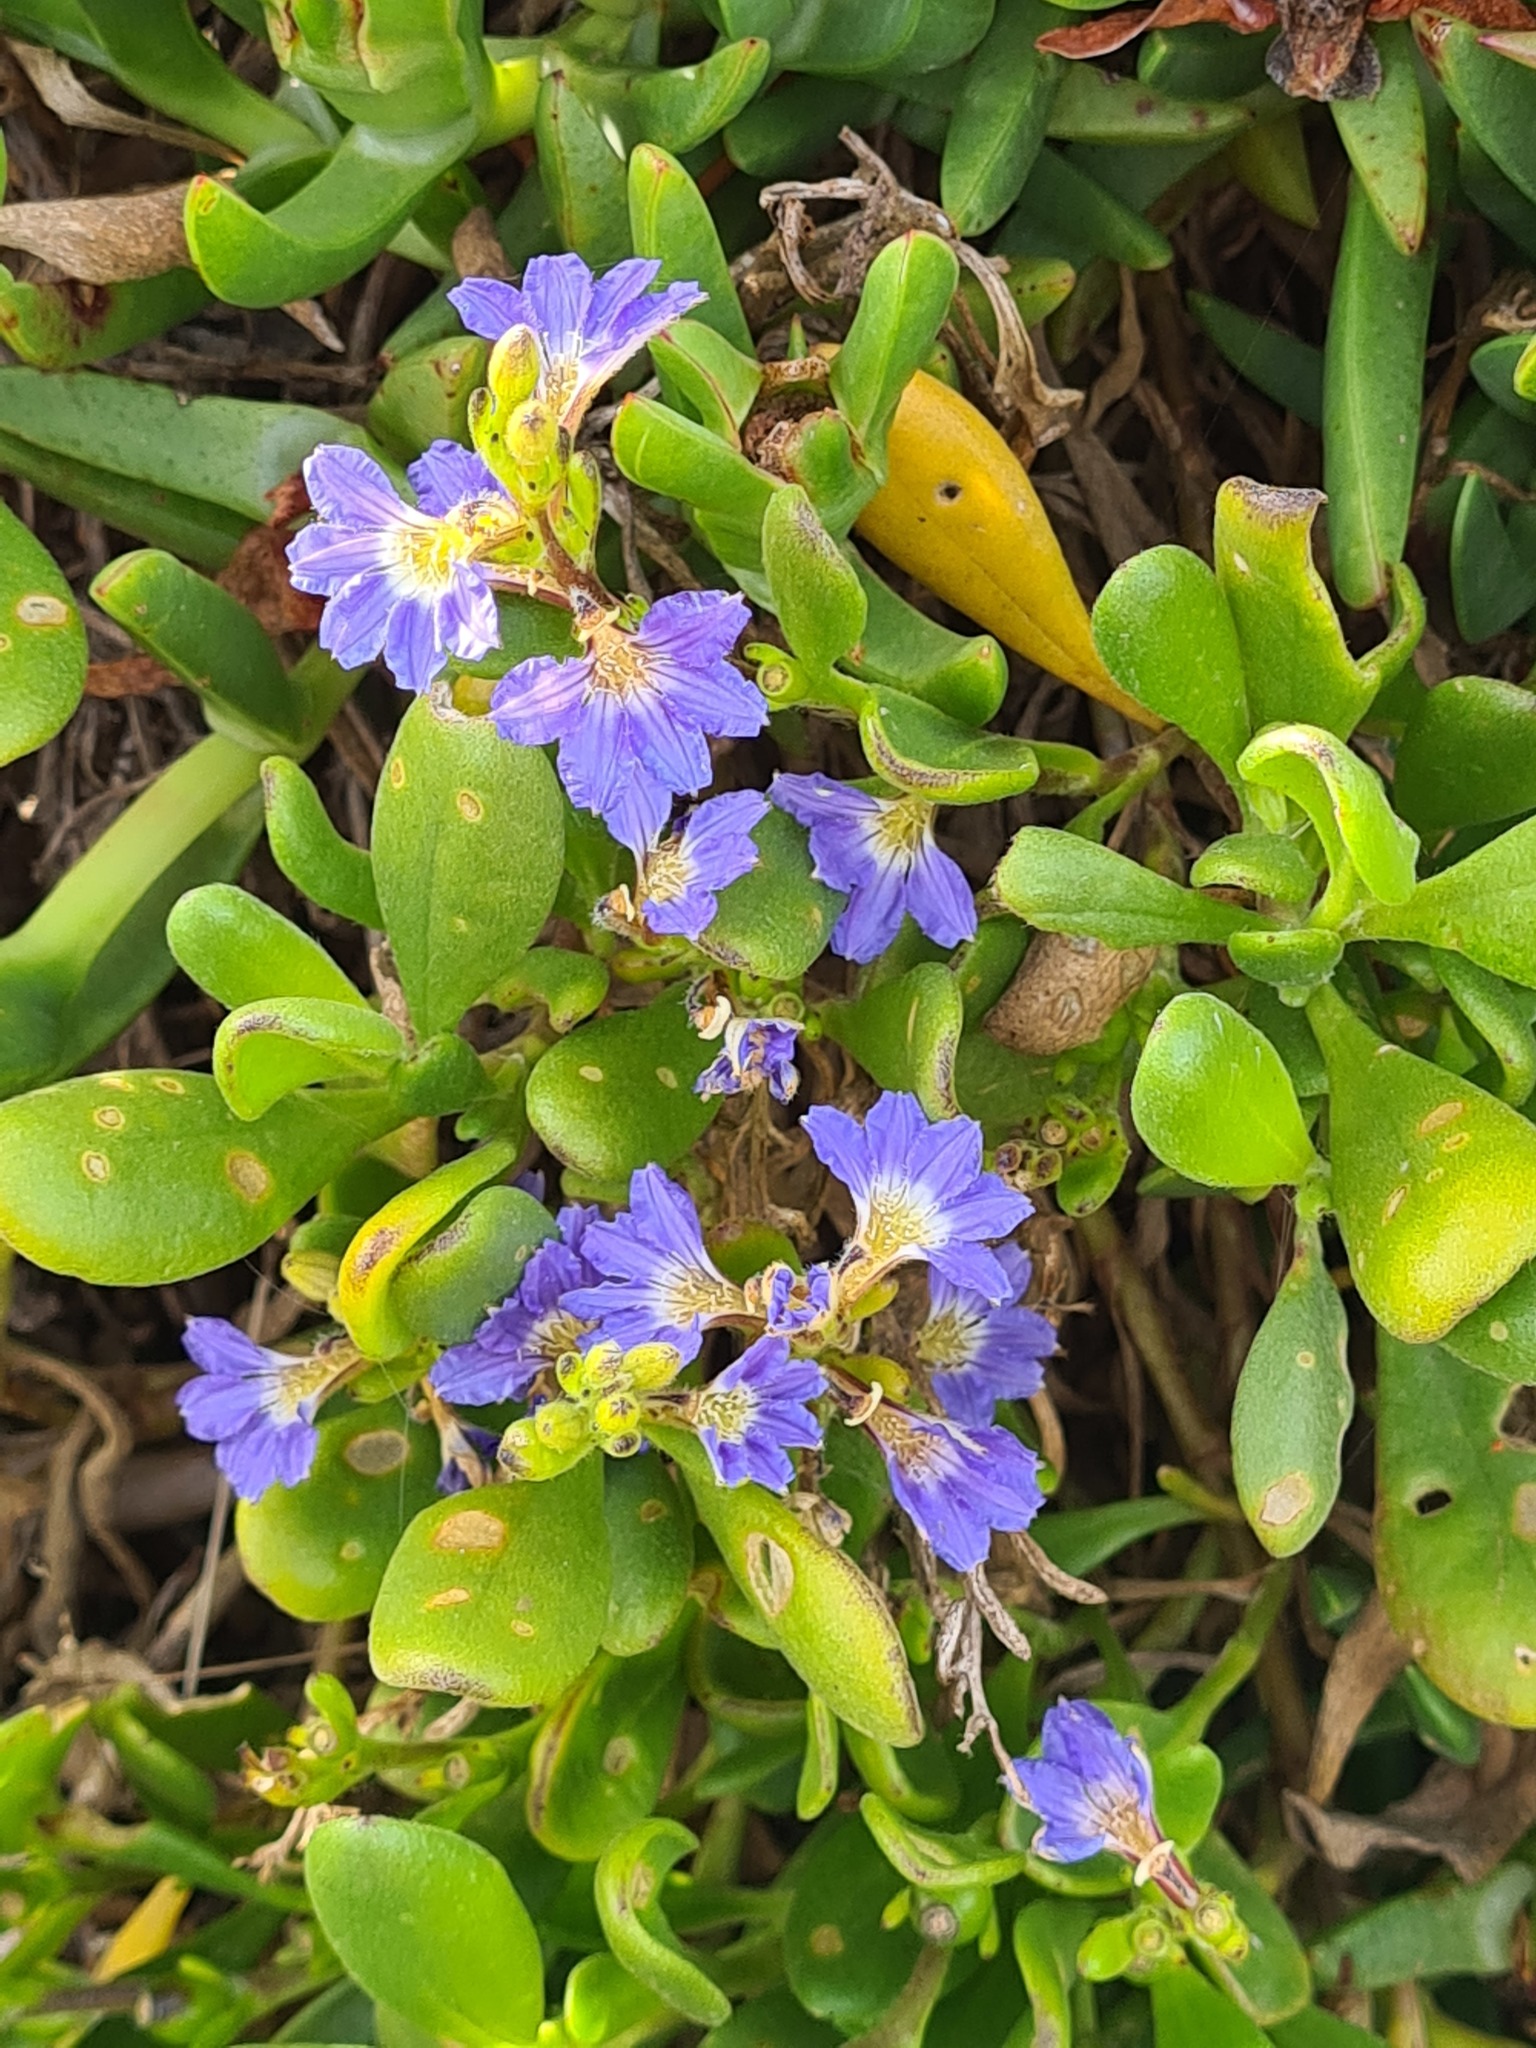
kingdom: Plantae
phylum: Tracheophyta
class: Magnoliopsida
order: Asterales
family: Goodeniaceae
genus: Scaevola
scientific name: Scaevola calendulacea
